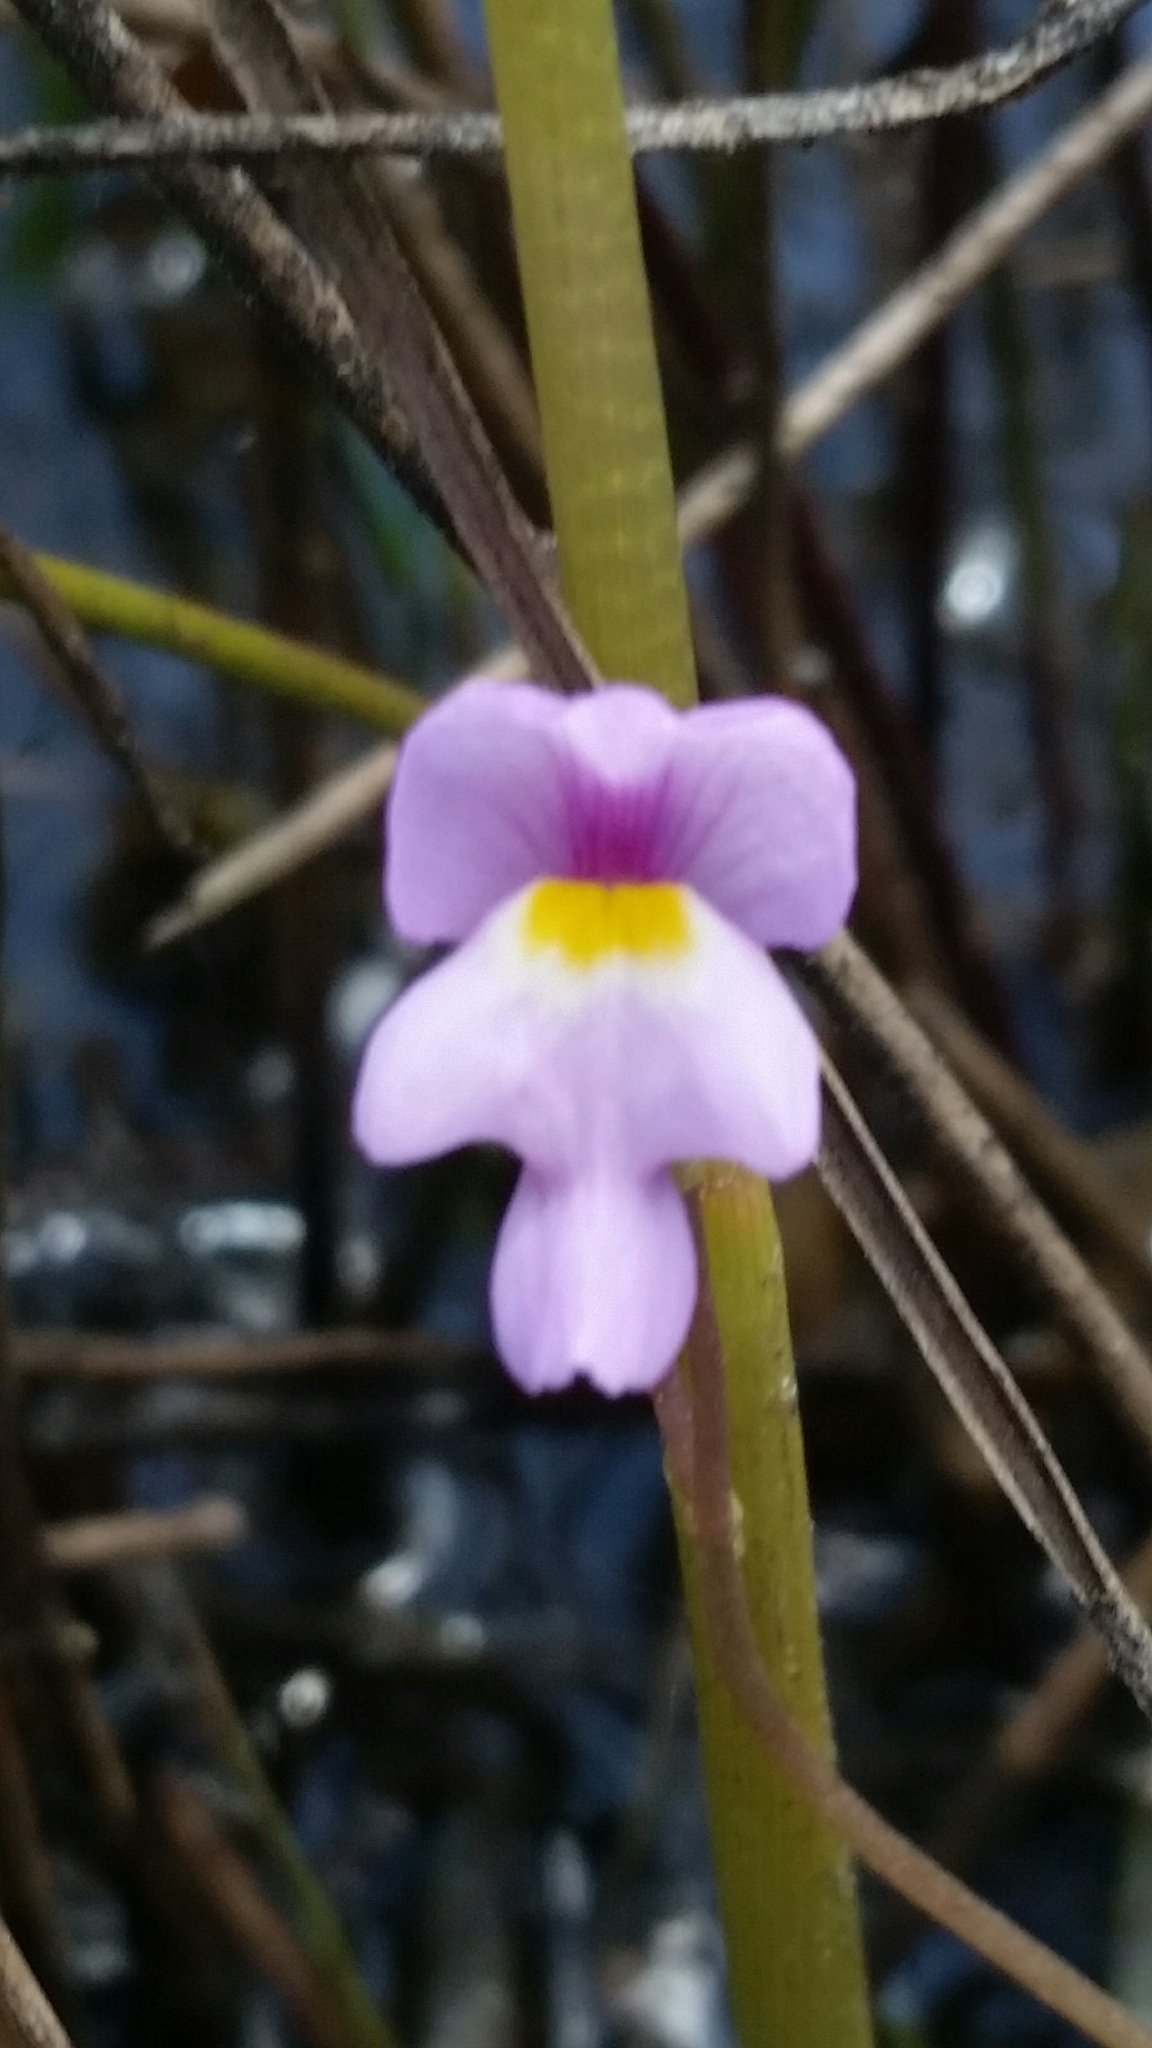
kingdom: Plantae
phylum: Tracheophyta
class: Magnoliopsida
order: Lamiales
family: Lentibulariaceae
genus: Utricularia
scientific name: Utricularia purpurea
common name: Eastern purple bladderwort
